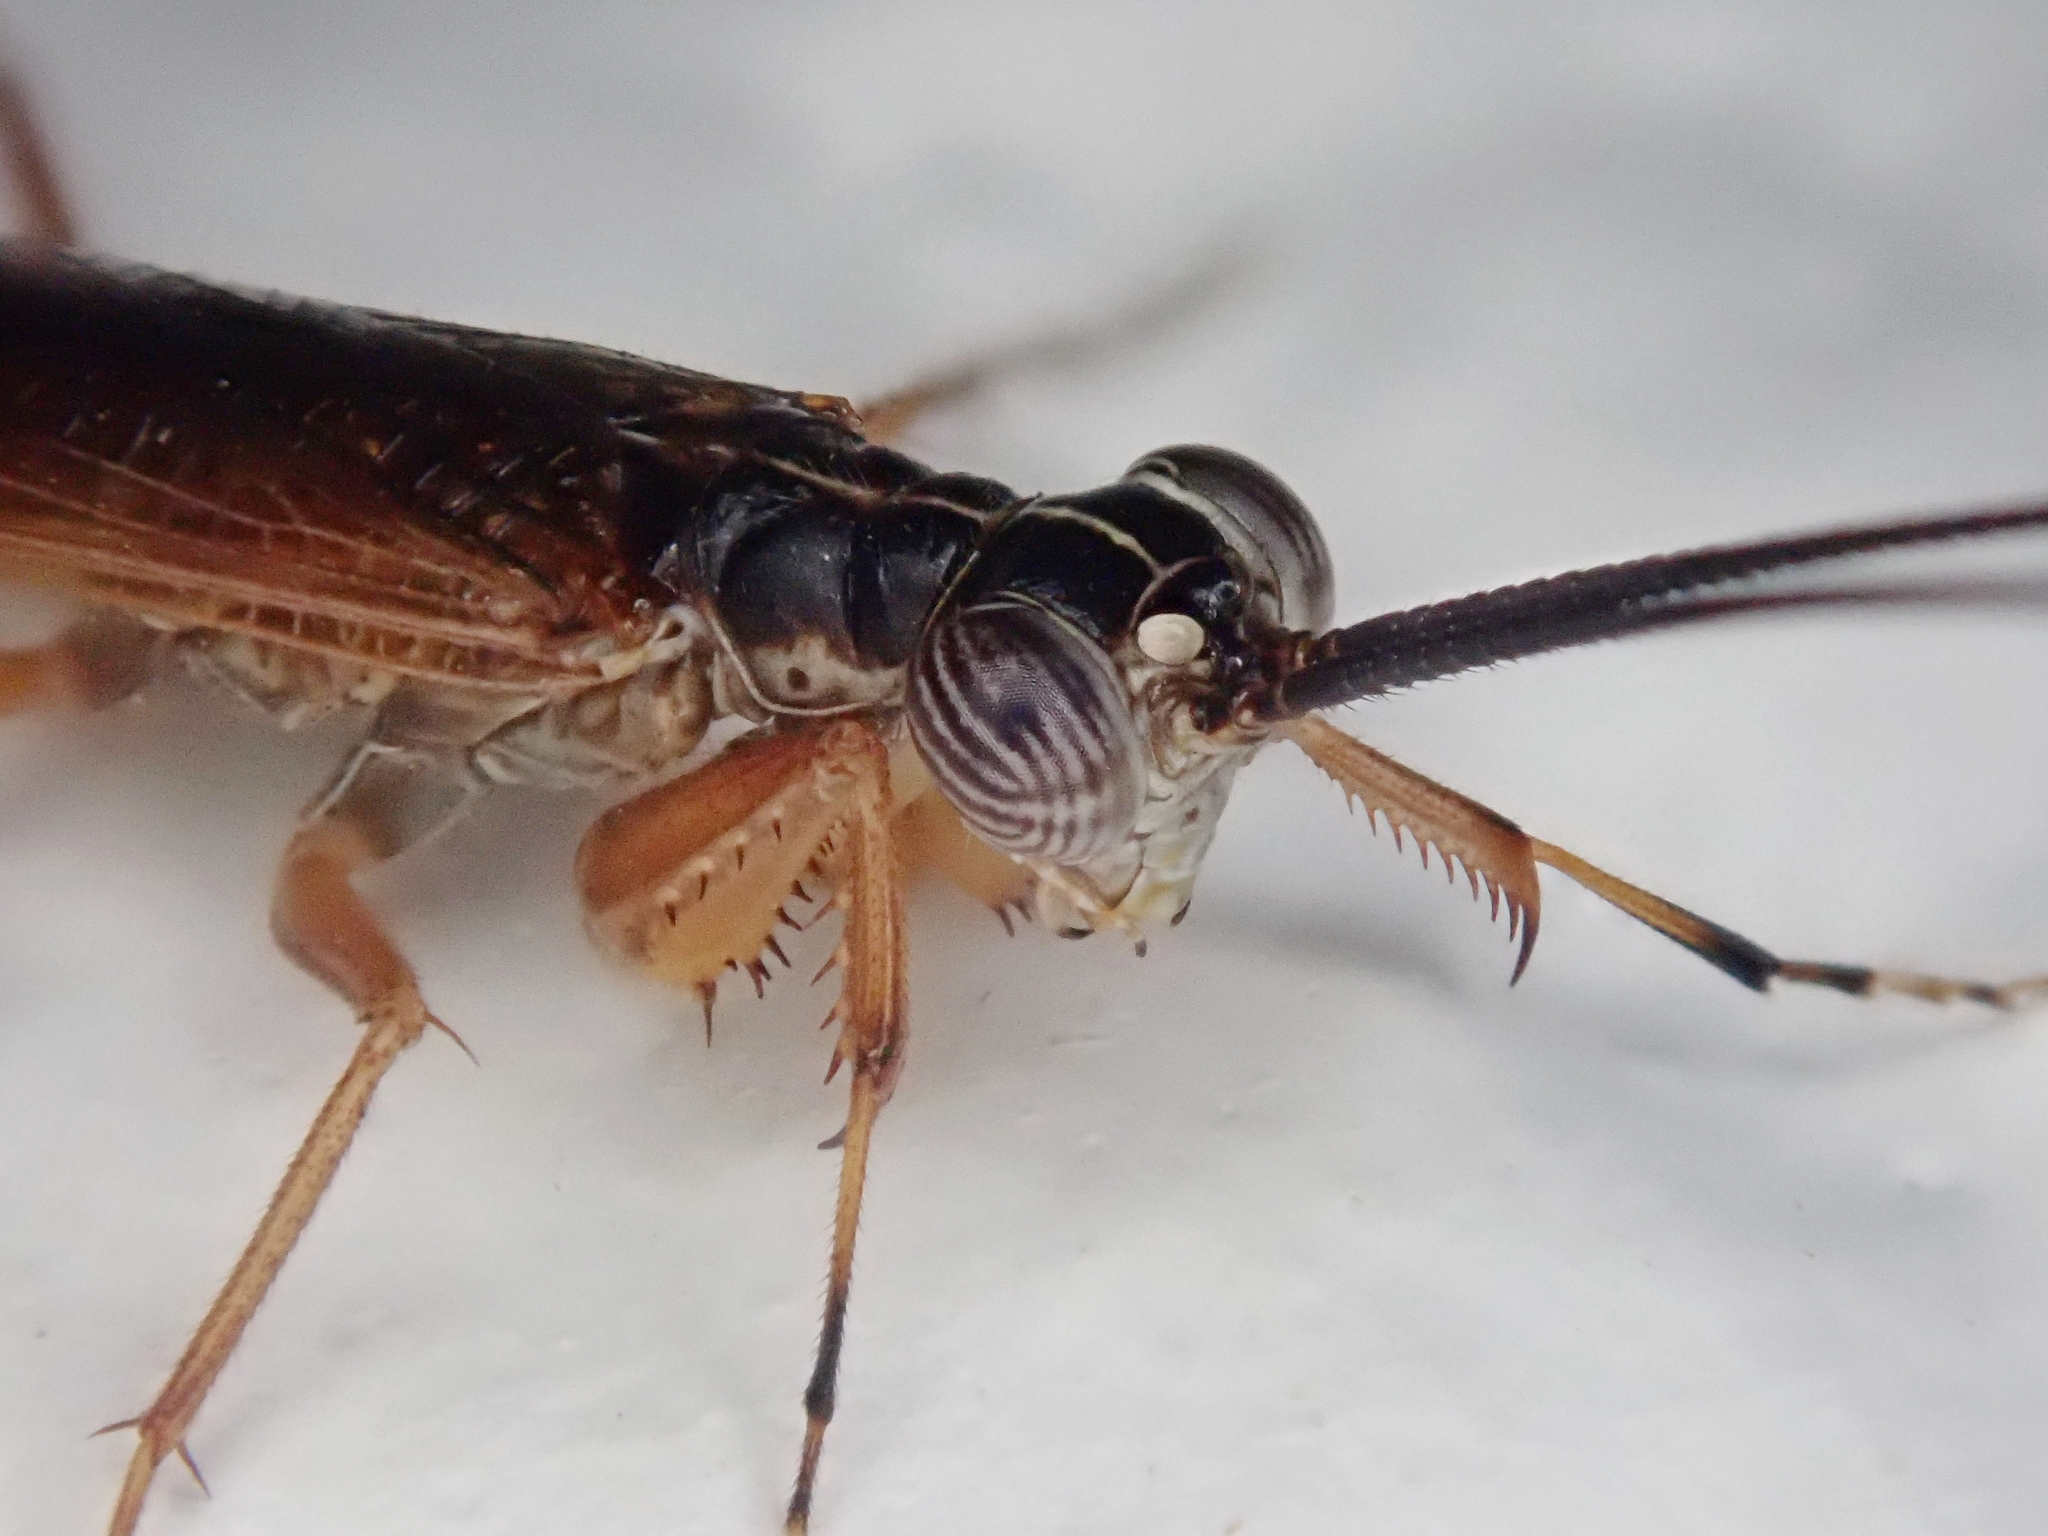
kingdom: Animalia
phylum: Arthropoda
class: Insecta
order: Mantodea
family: Mantoididae
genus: Mantoida
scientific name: Mantoida
